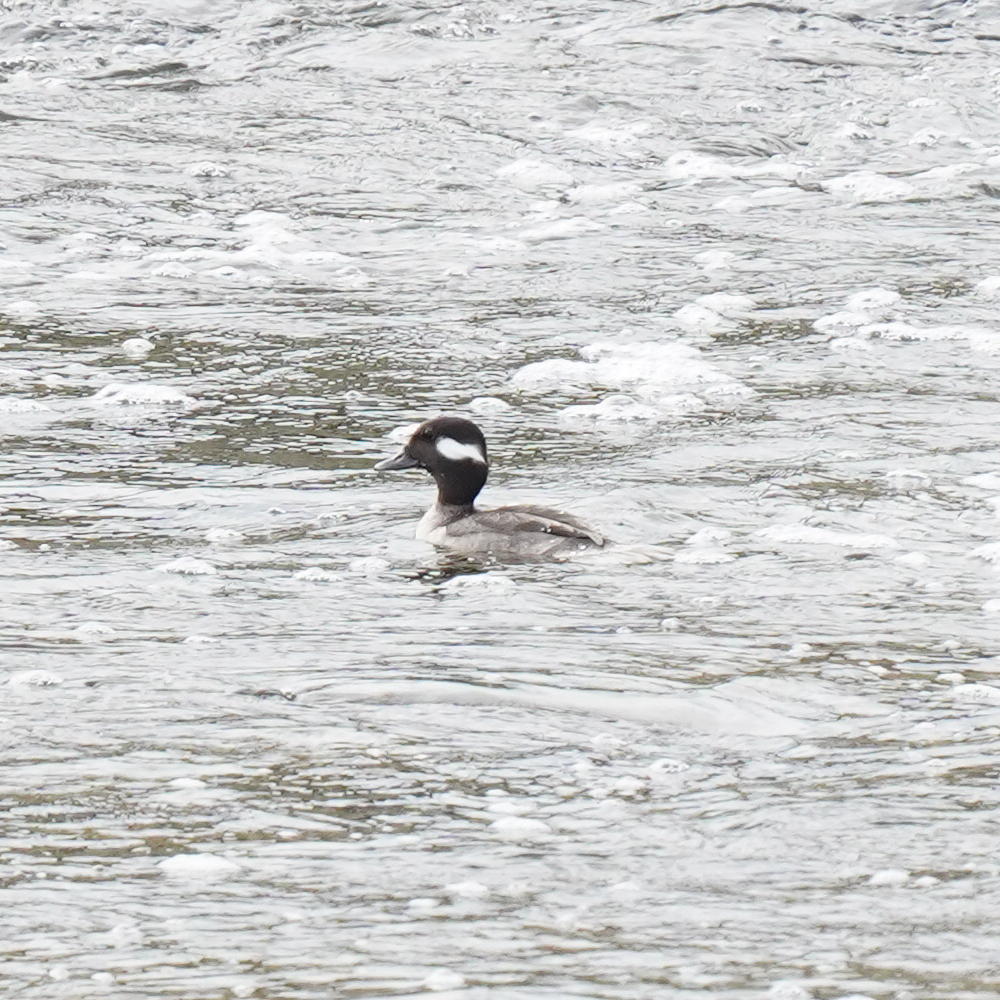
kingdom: Animalia
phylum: Chordata
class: Aves
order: Anseriformes
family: Anatidae
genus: Bucephala
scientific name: Bucephala albeola
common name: Bufflehead
